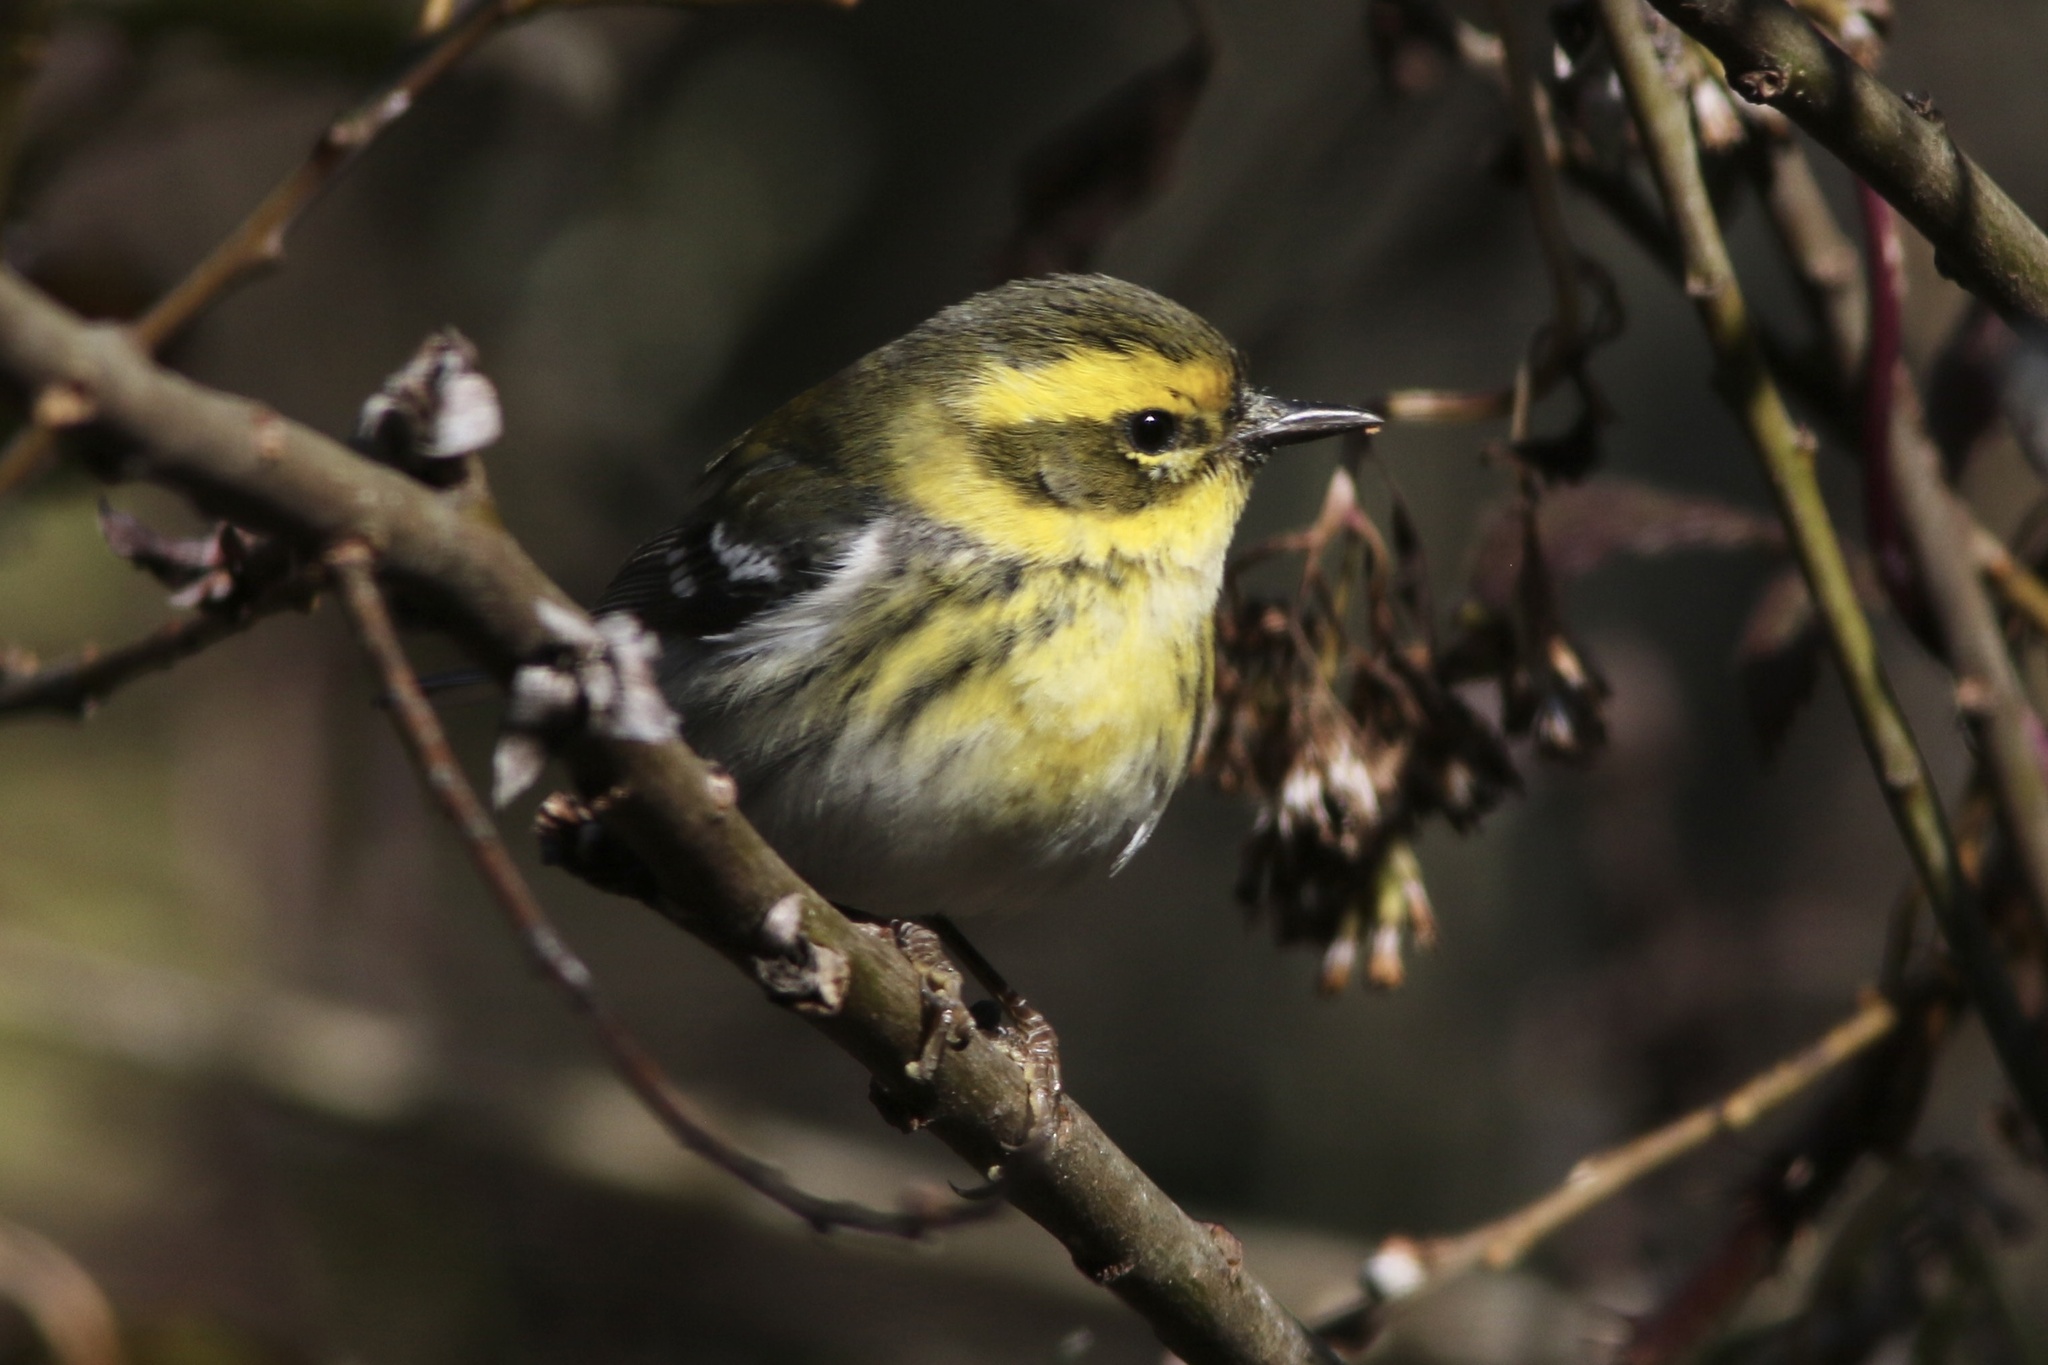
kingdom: Animalia
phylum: Chordata
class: Aves
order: Passeriformes
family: Parulidae
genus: Setophaga
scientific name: Setophaga townsendi
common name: Townsend's warbler
